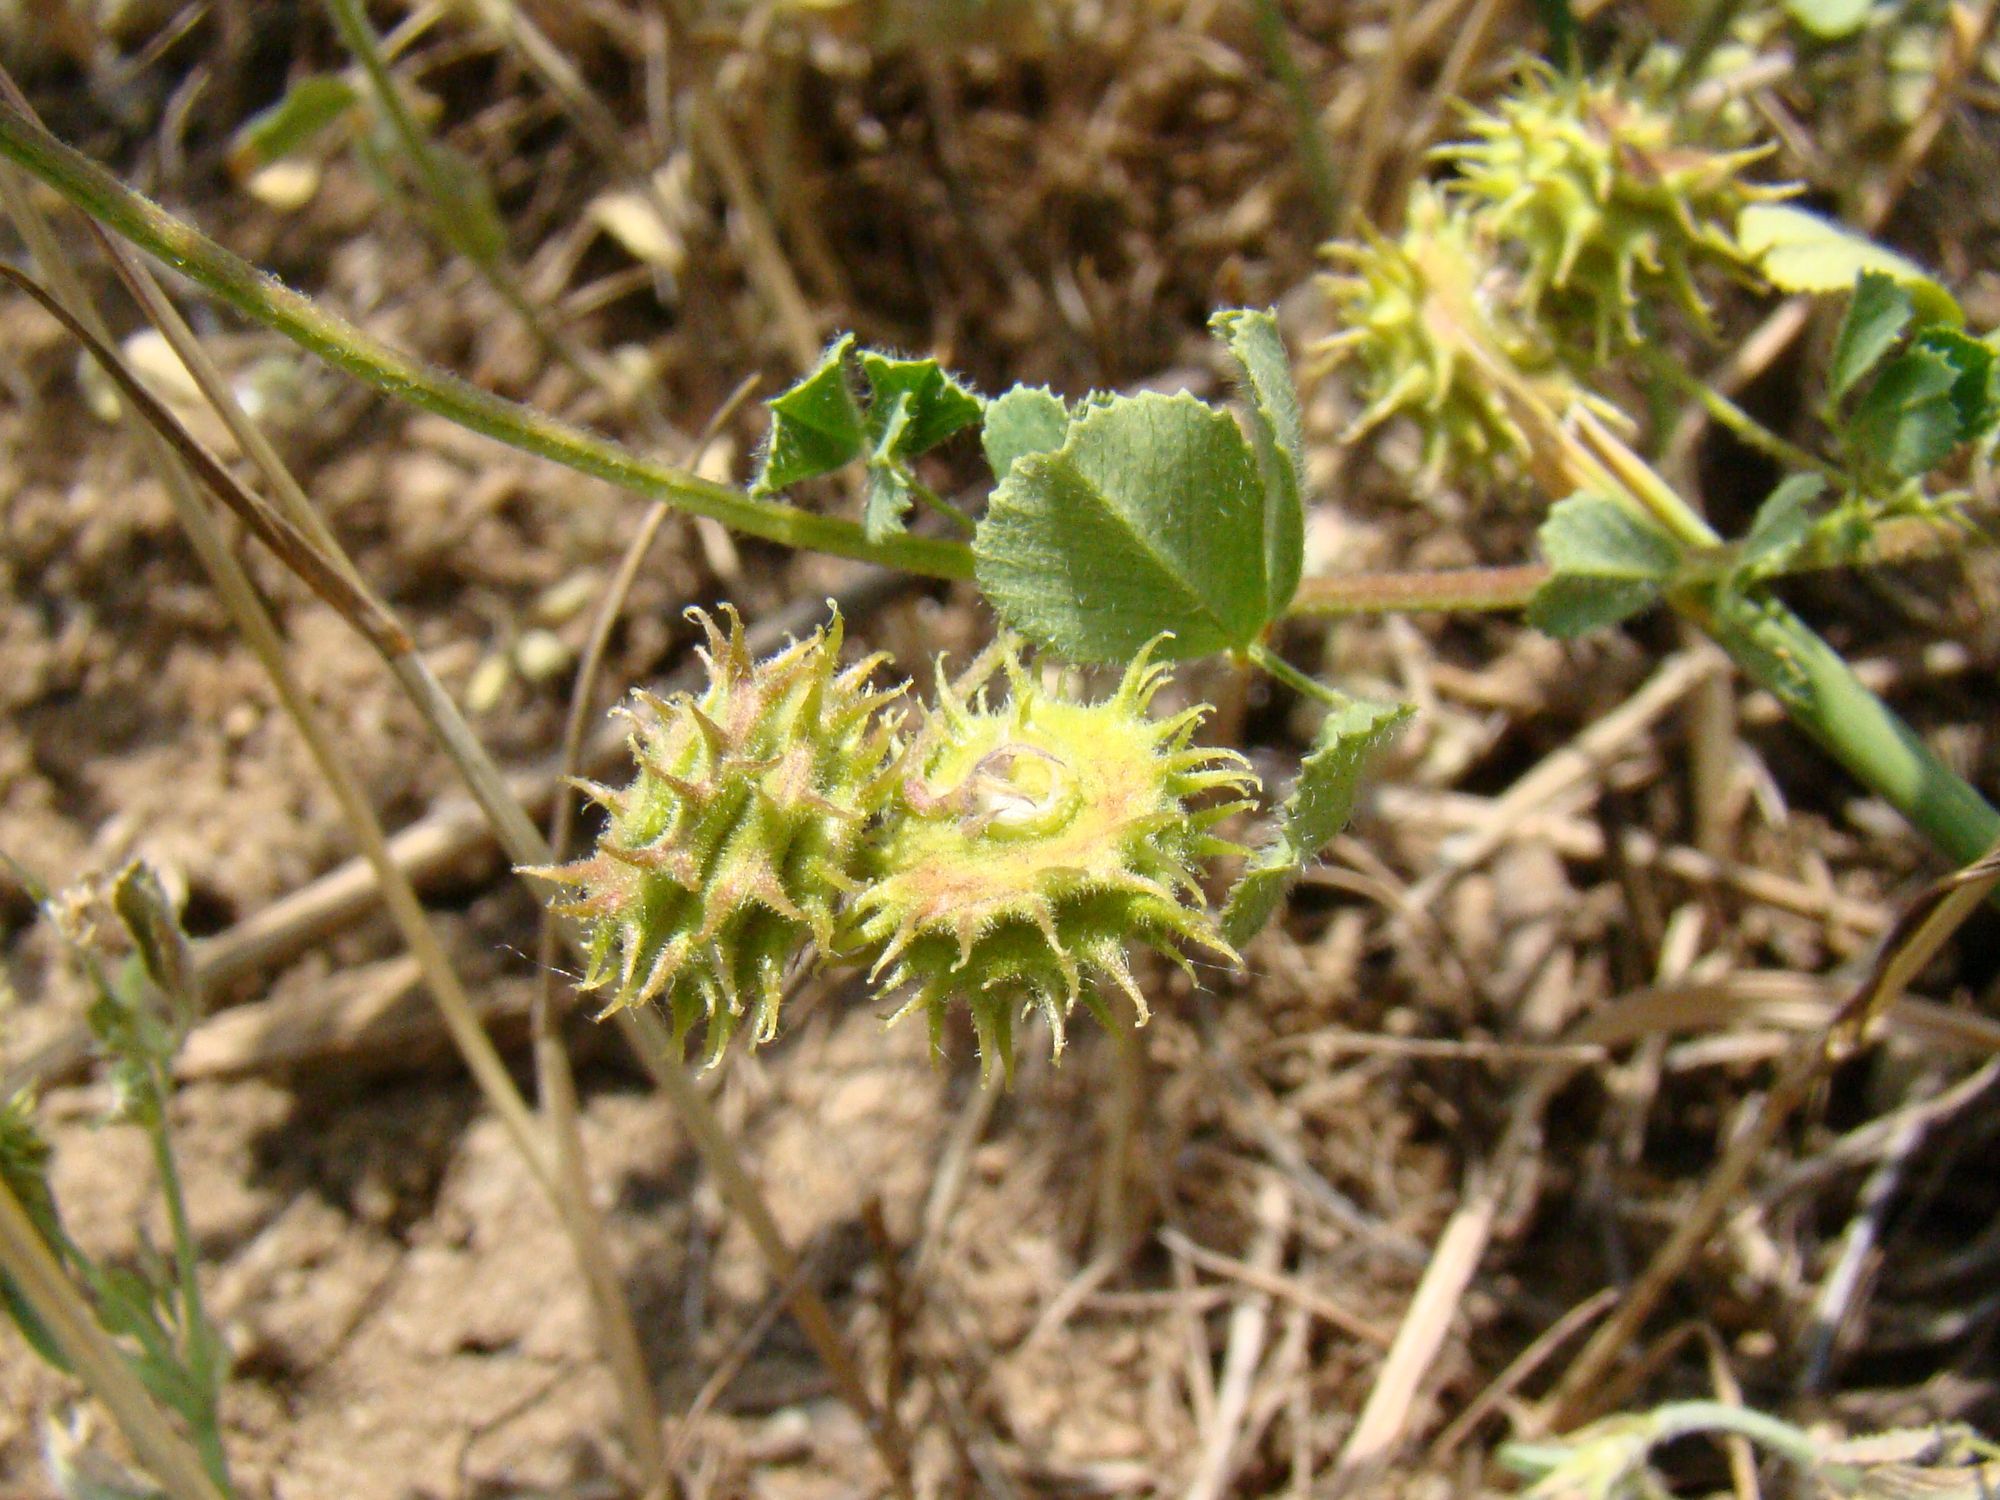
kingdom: Plantae
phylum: Tracheophyta
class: Magnoliopsida
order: Fabales
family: Fabaceae
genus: Medicago
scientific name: Medicago rigidula
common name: Tifton medic
